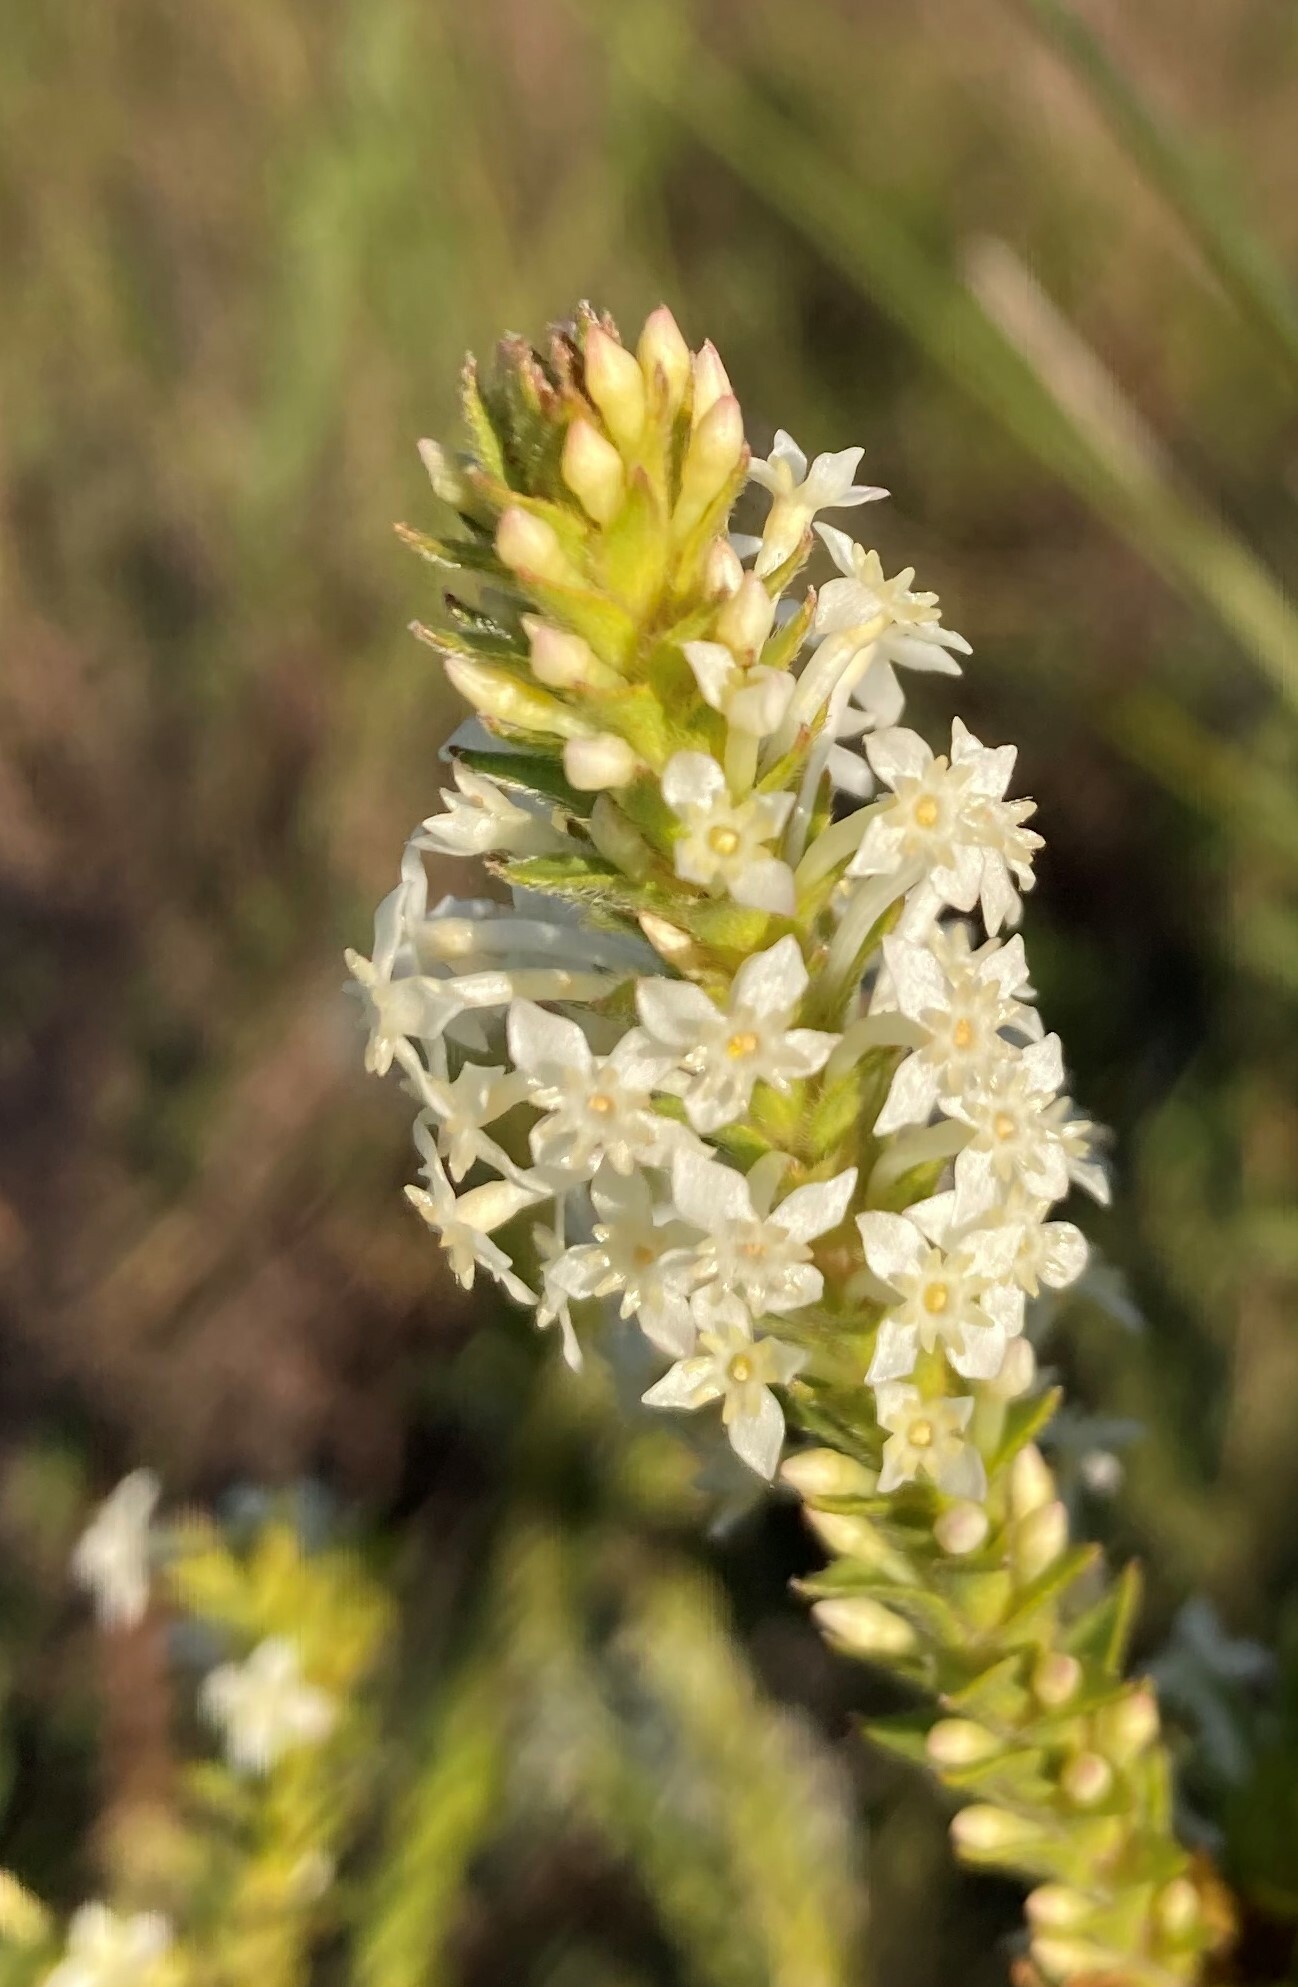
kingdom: Plantae
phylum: Tracheophyta
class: Magnoliopsida
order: Malvales
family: Thymelaeaceae
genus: Struthiola
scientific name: Struthiola hirsuta
